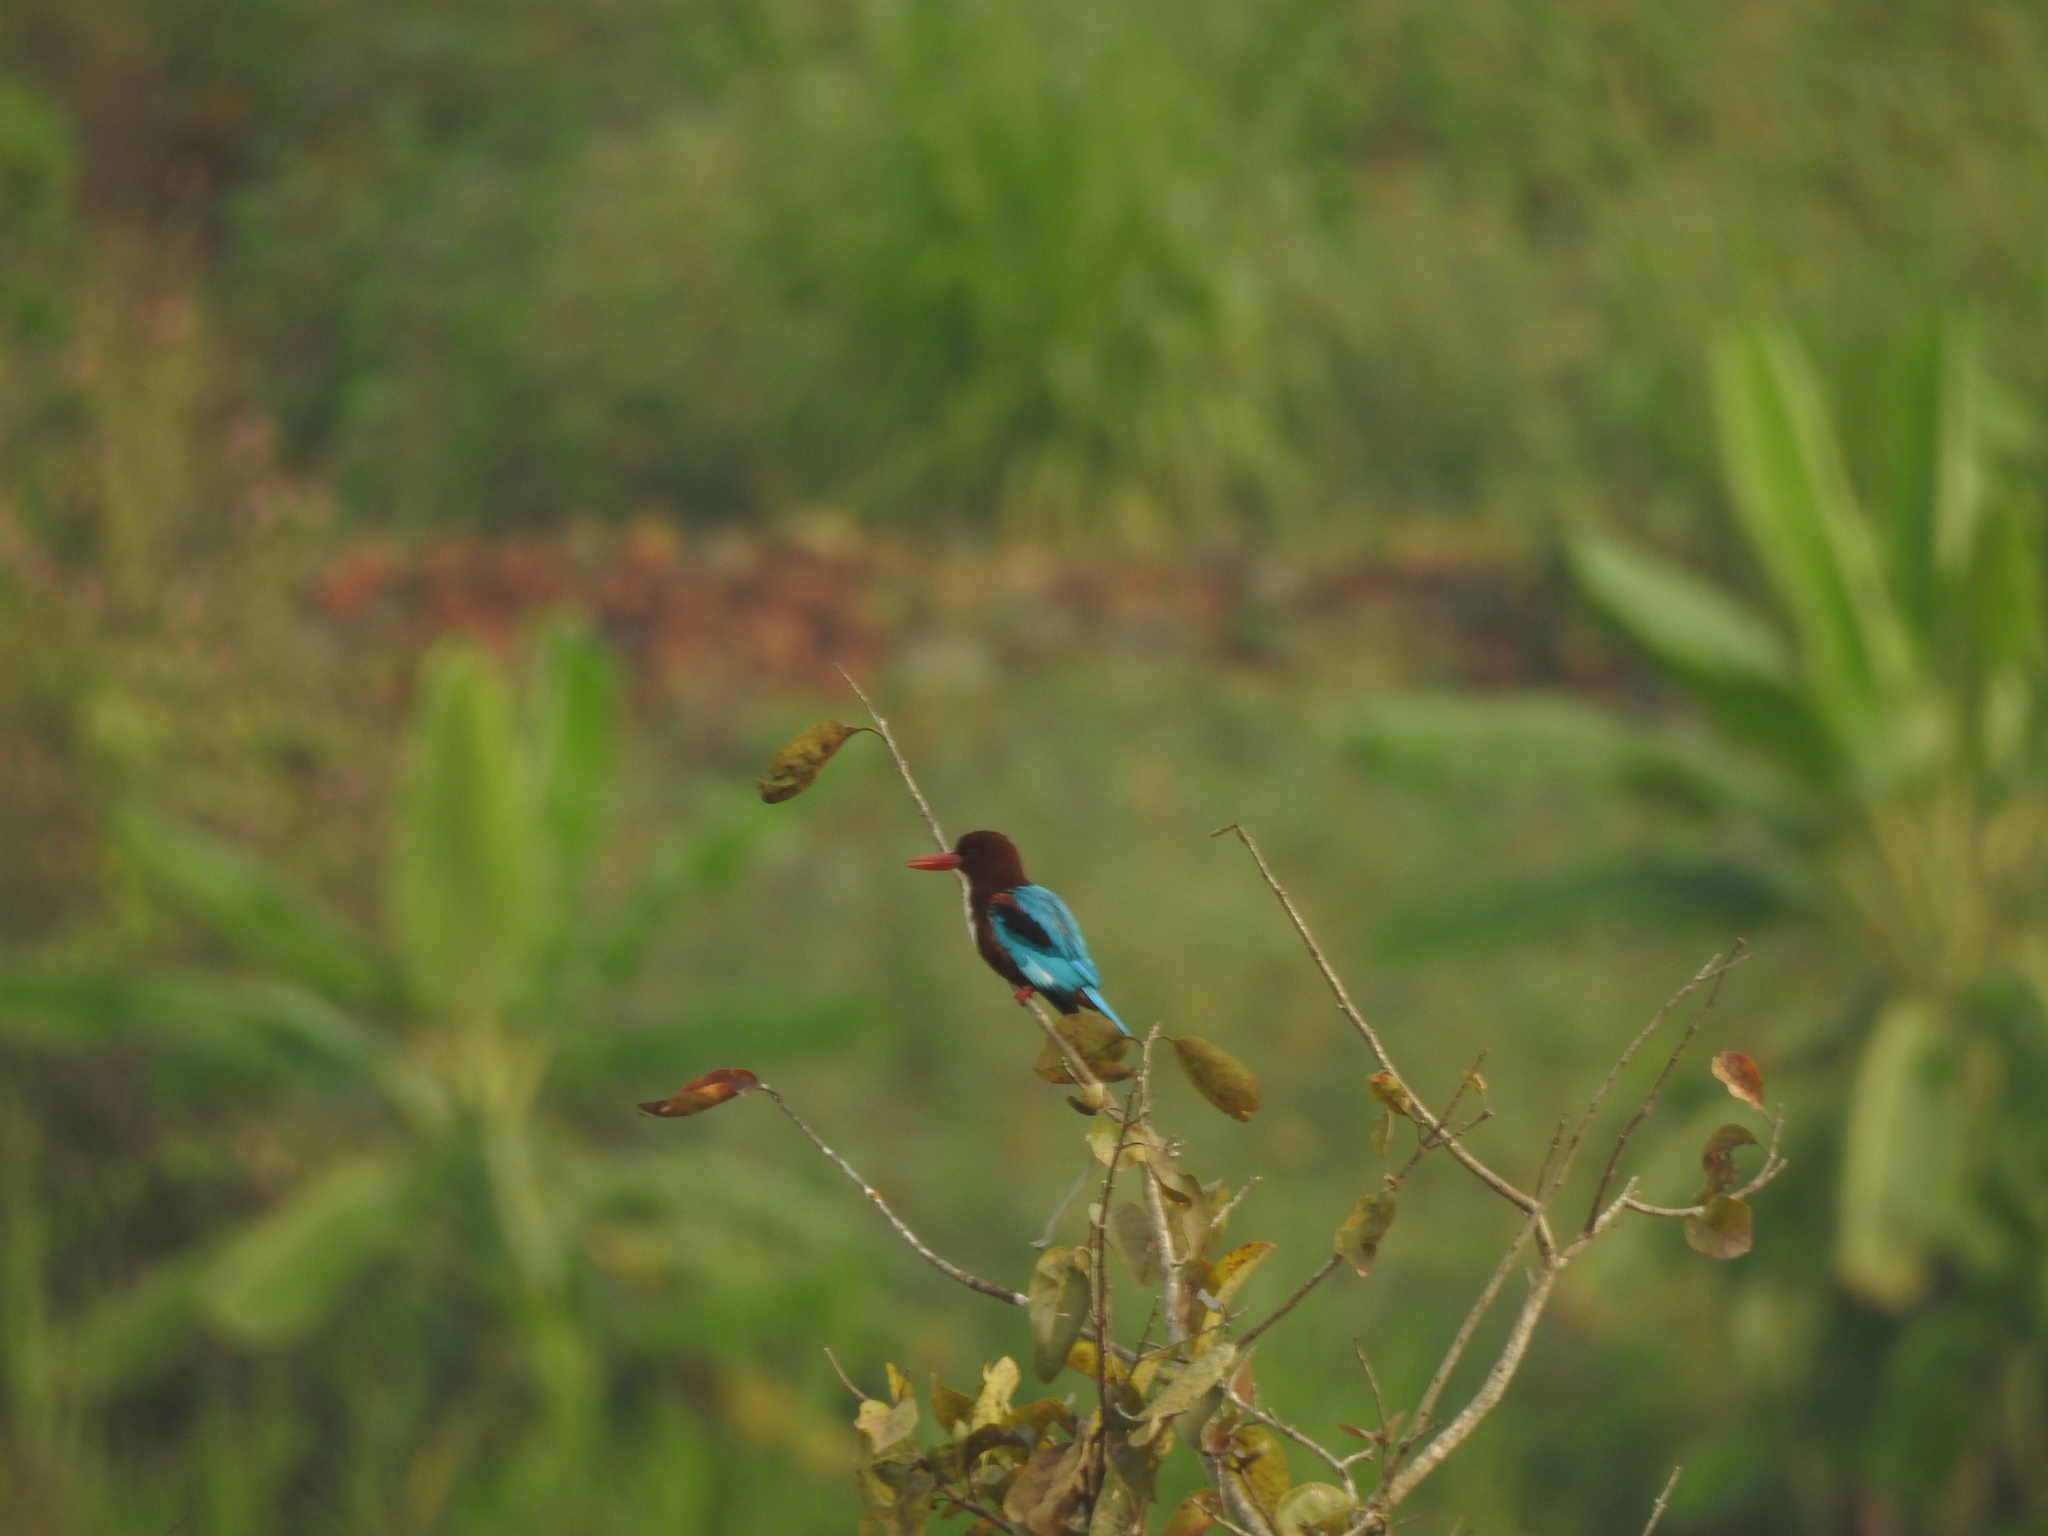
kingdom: Animalia
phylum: Chordata
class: Aves
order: Coraciiformes
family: Alcedinidae
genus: Halcyon
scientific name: Halcyon smyrnensis
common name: White-throated kingfisher
